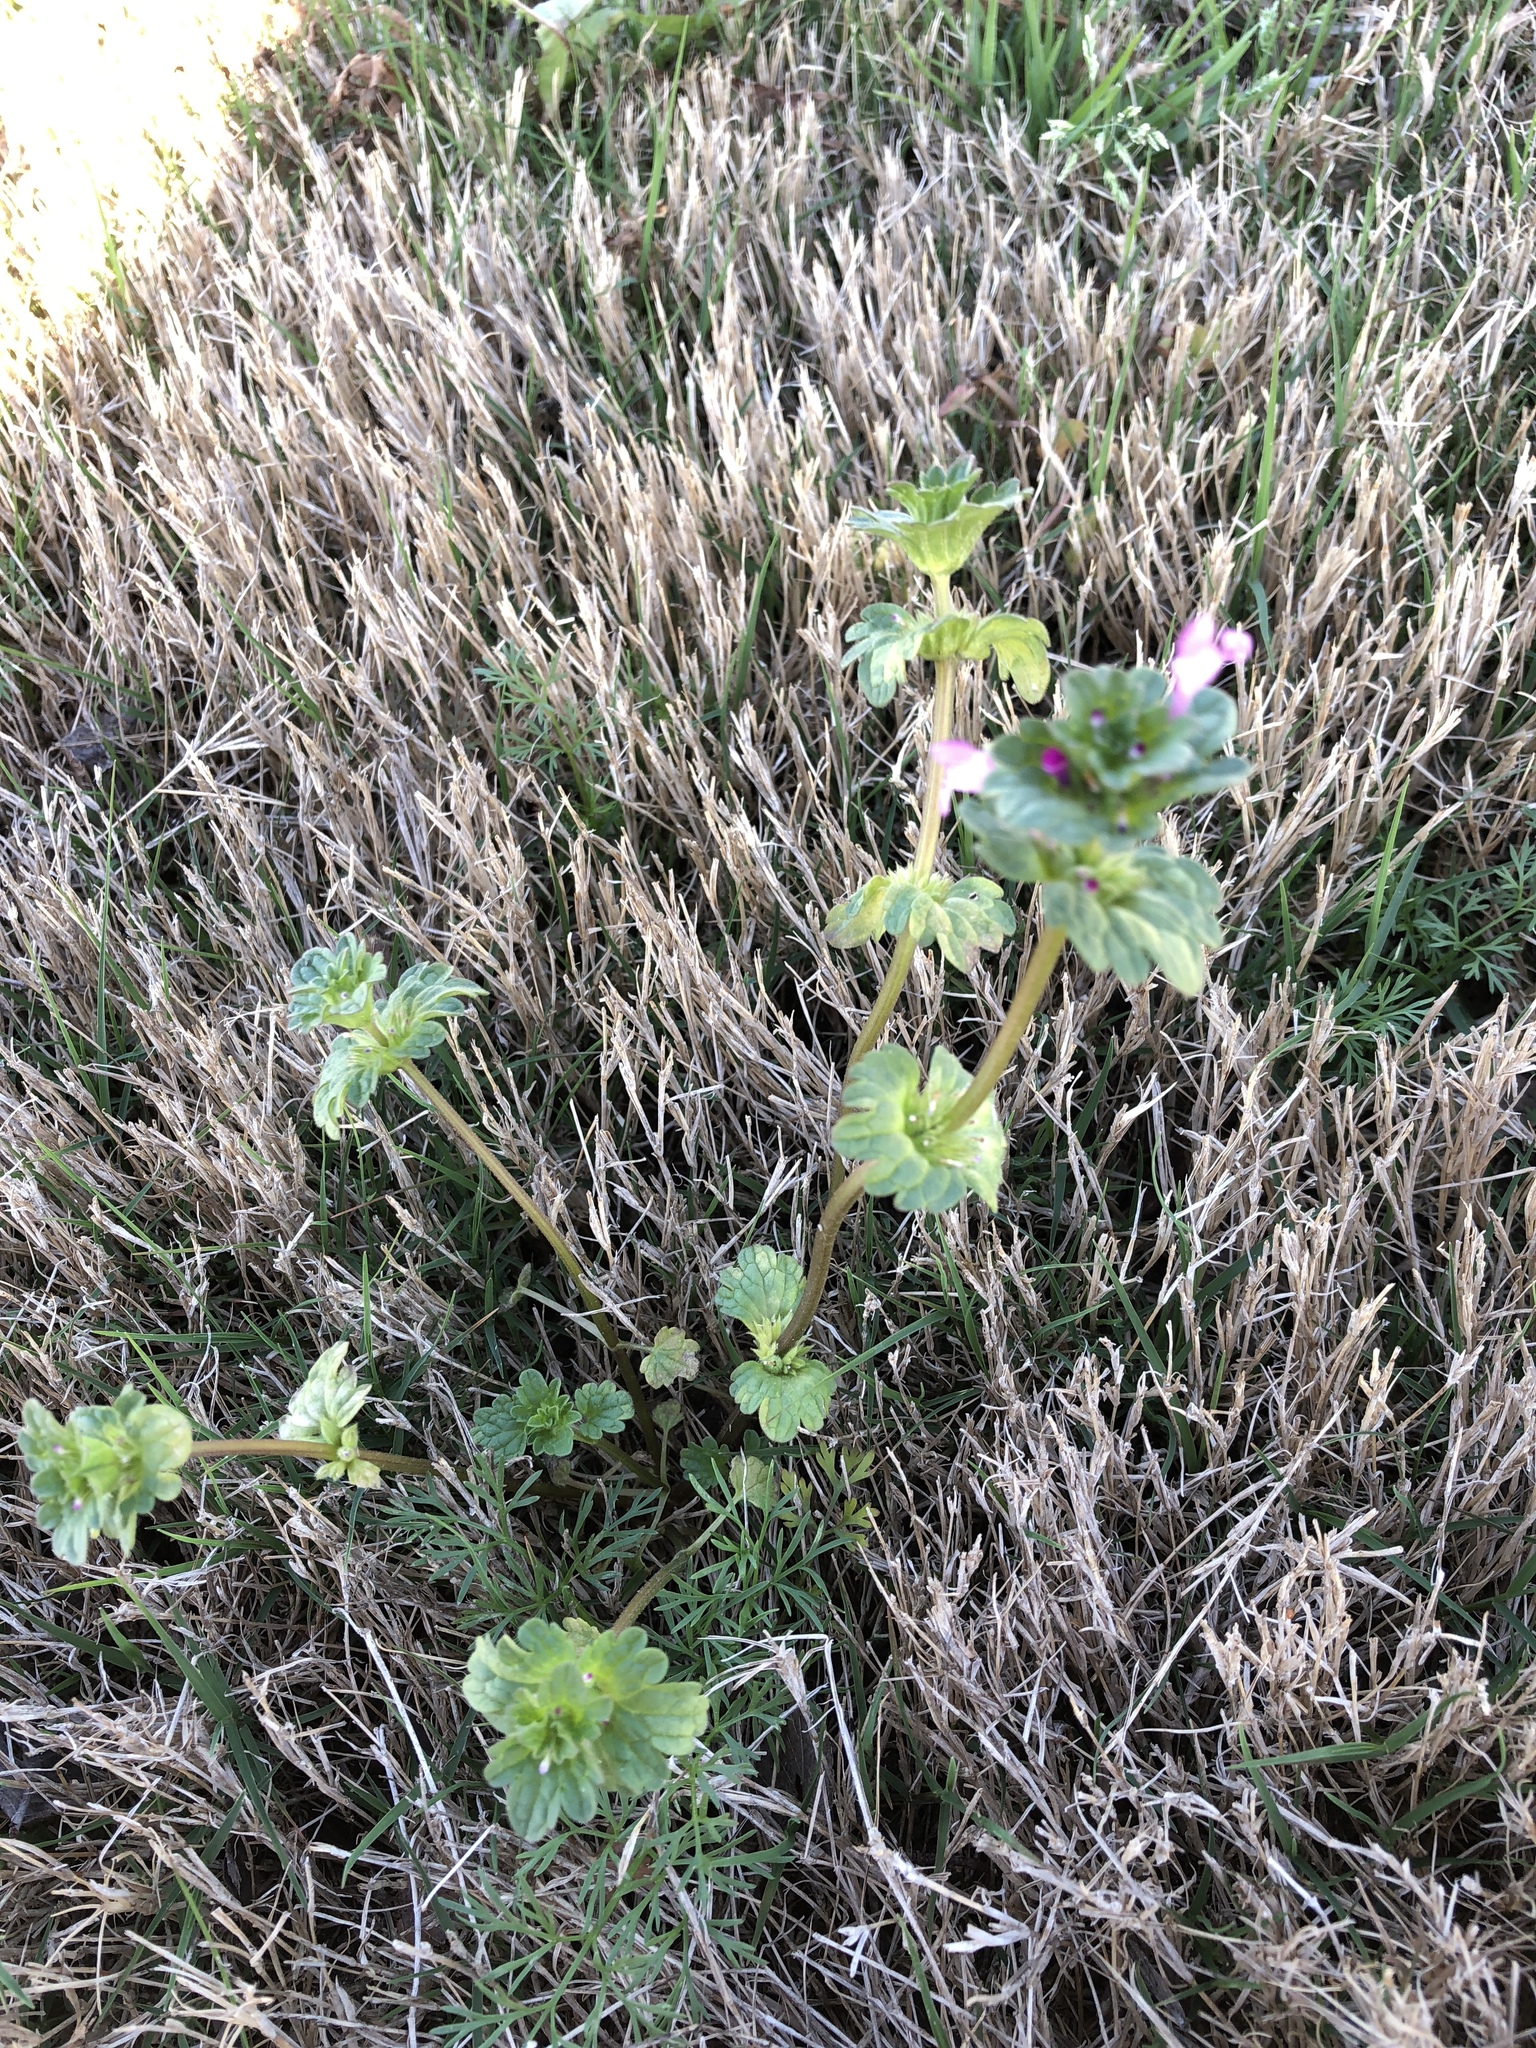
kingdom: Plantae
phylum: Tracheophyta
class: Magnoliopsida
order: Lamiales
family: Lamiaceae
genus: Lamium
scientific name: Lamium amplexicaule
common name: Henbit dead-nettle
